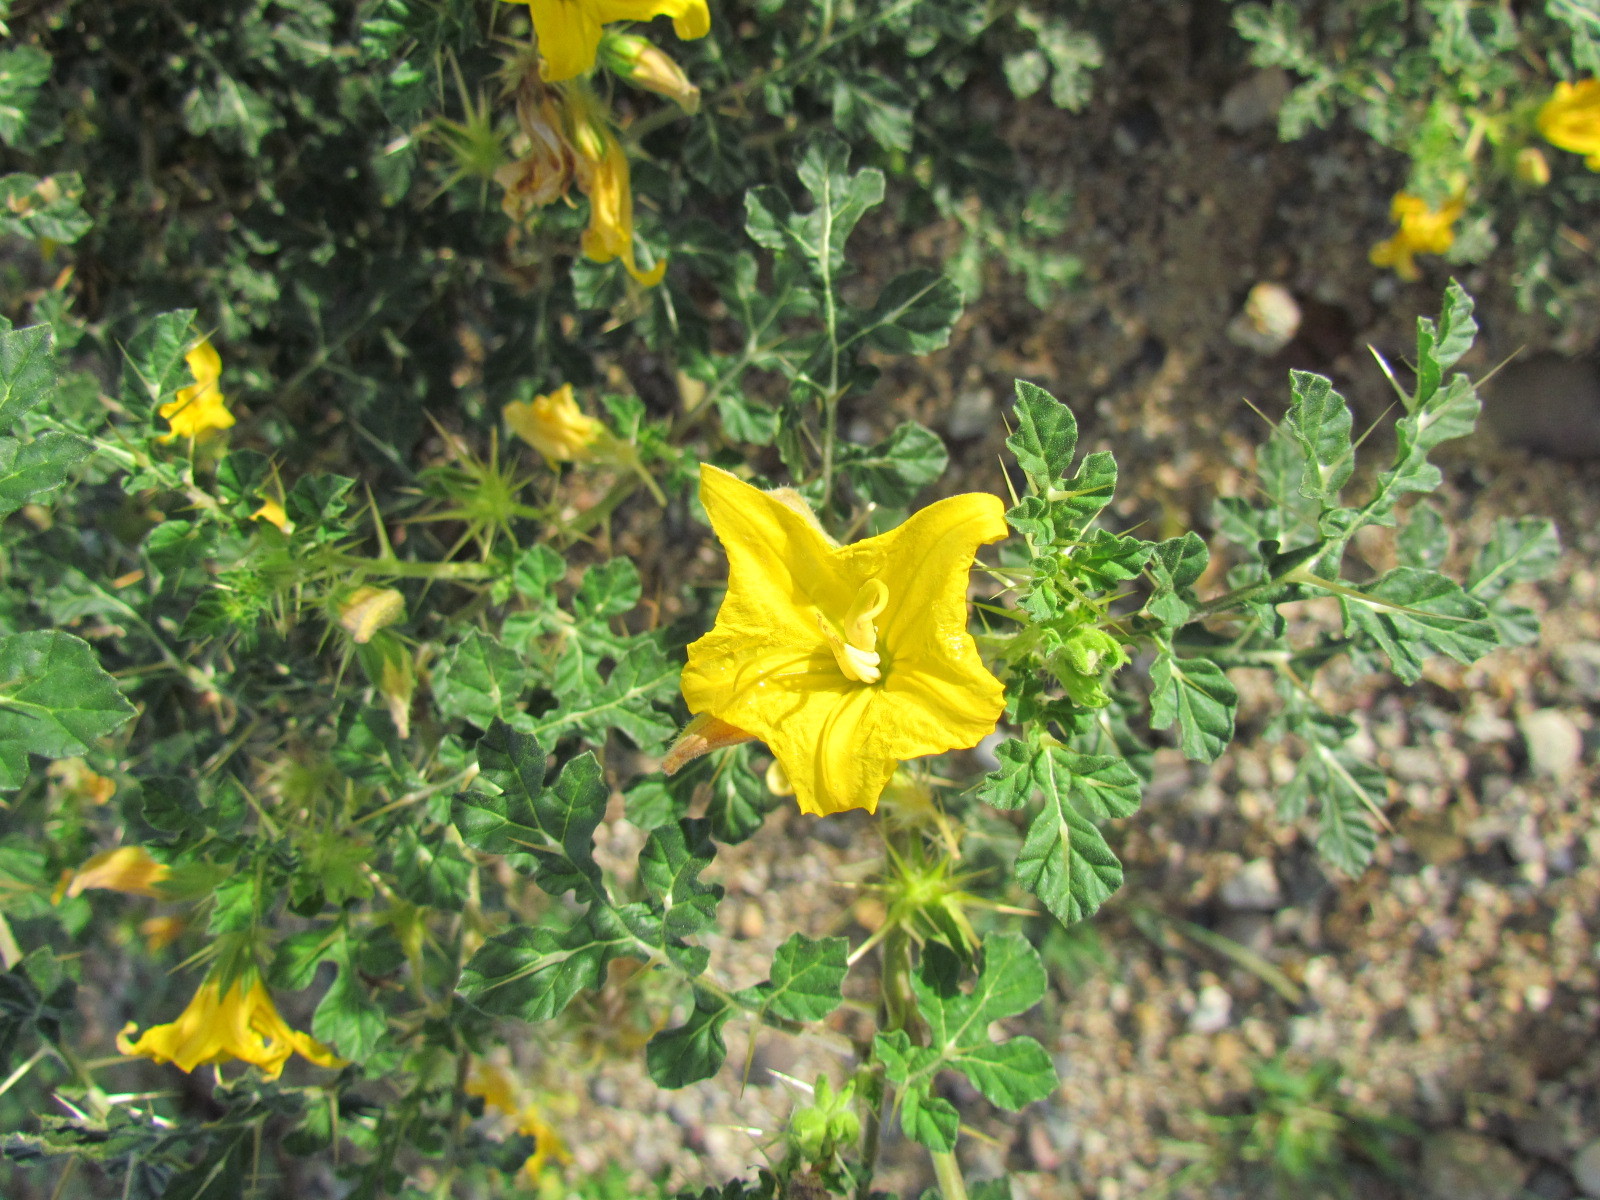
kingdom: Plantae
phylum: Tracheophyta
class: Magnoliopsida
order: Solanales
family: Solanaceae
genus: Solanum
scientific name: Solanum angustifolium
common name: Buffalobur nightshade
